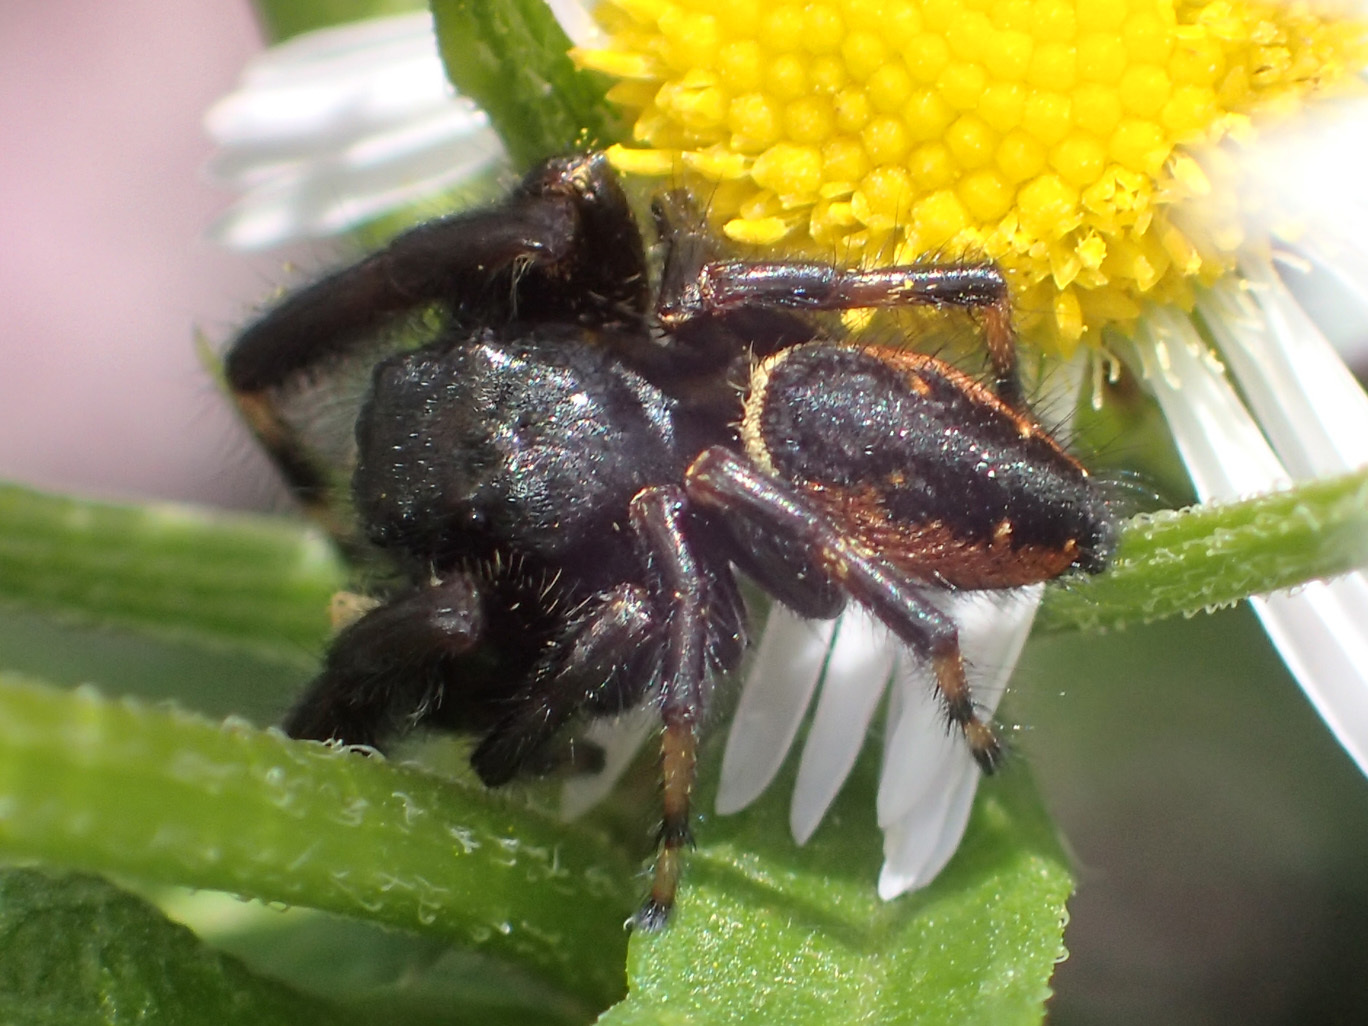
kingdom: Animalia
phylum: Arthropoda
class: Arachnida
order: Araneae
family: Salticidae
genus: Phidippus
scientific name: Phidippus clarus
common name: Brilliant jumping spider
